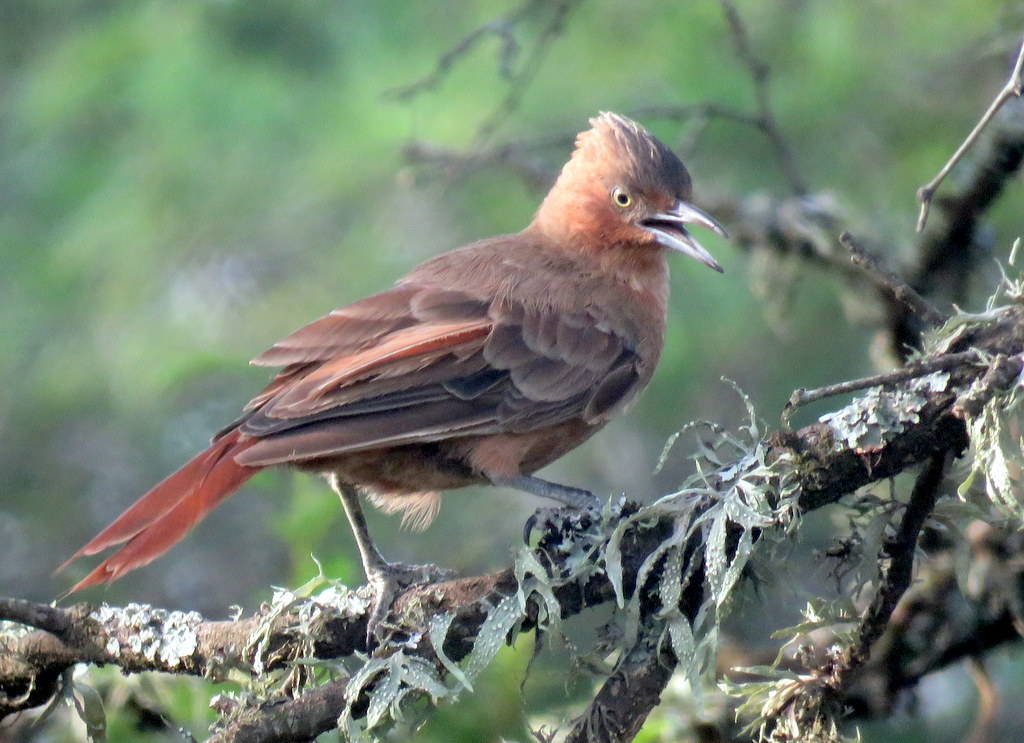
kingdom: Animalia
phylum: Chordata
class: Aves
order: Passeriformes
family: Furnariidae
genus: Pseudoseisura
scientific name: Pseudoseisura lophotes
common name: Brown cacholote
